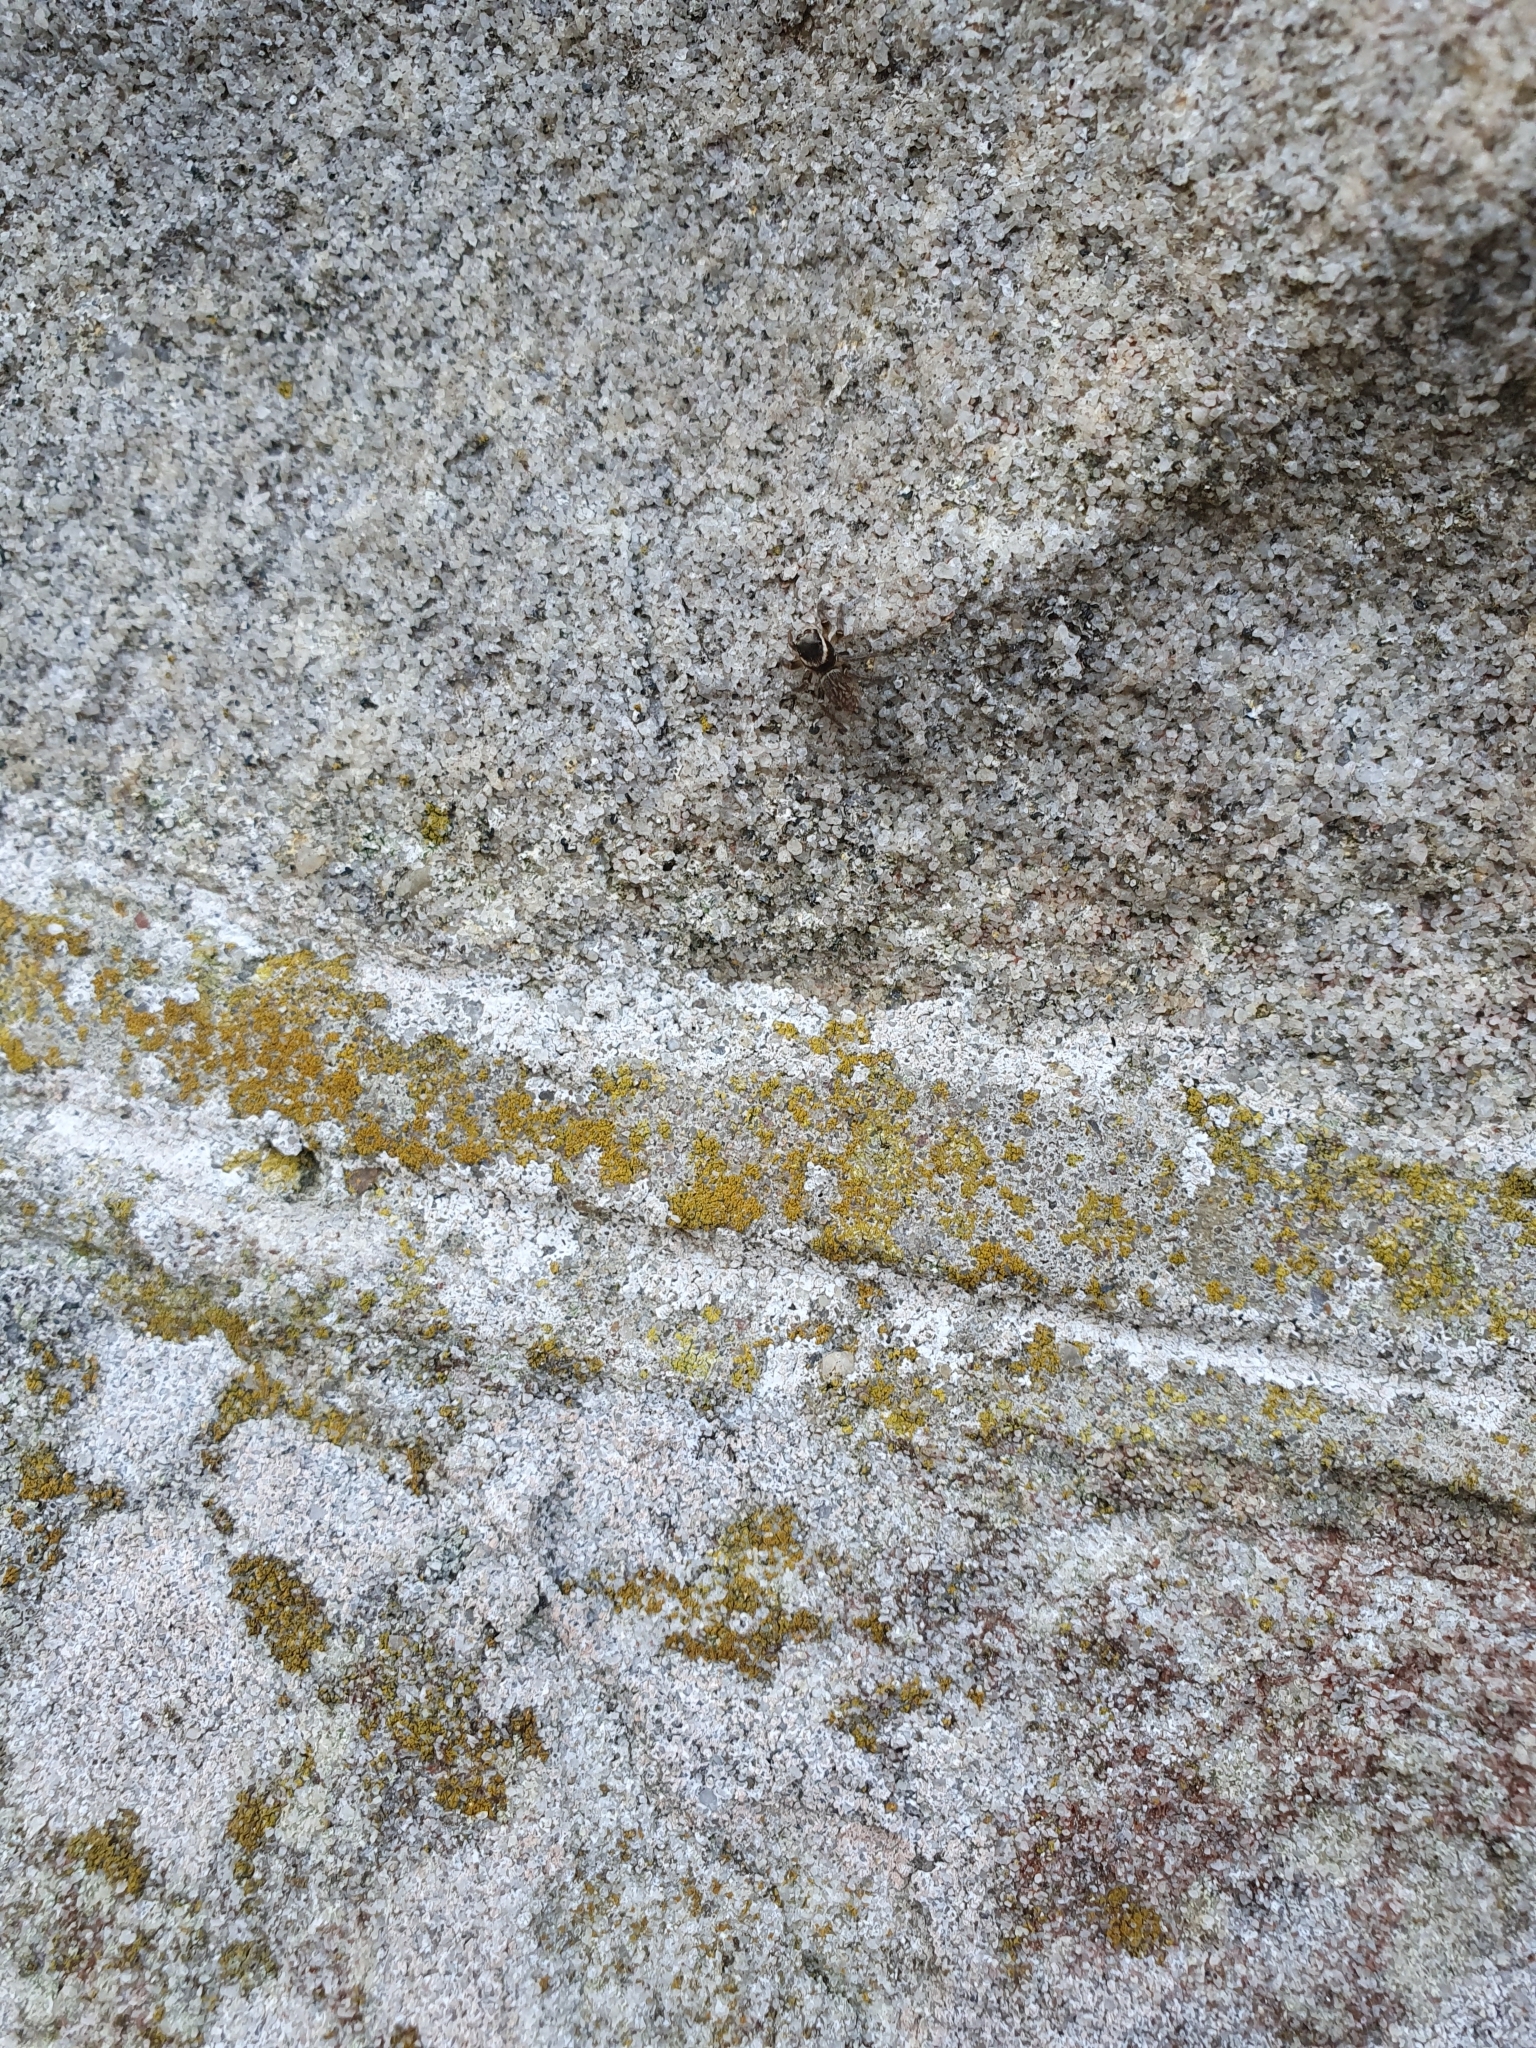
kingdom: Animalia
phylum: Arthropoda
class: Arachnida
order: Araneae
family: Salticidae
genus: Maratus
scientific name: Maratus griseus
